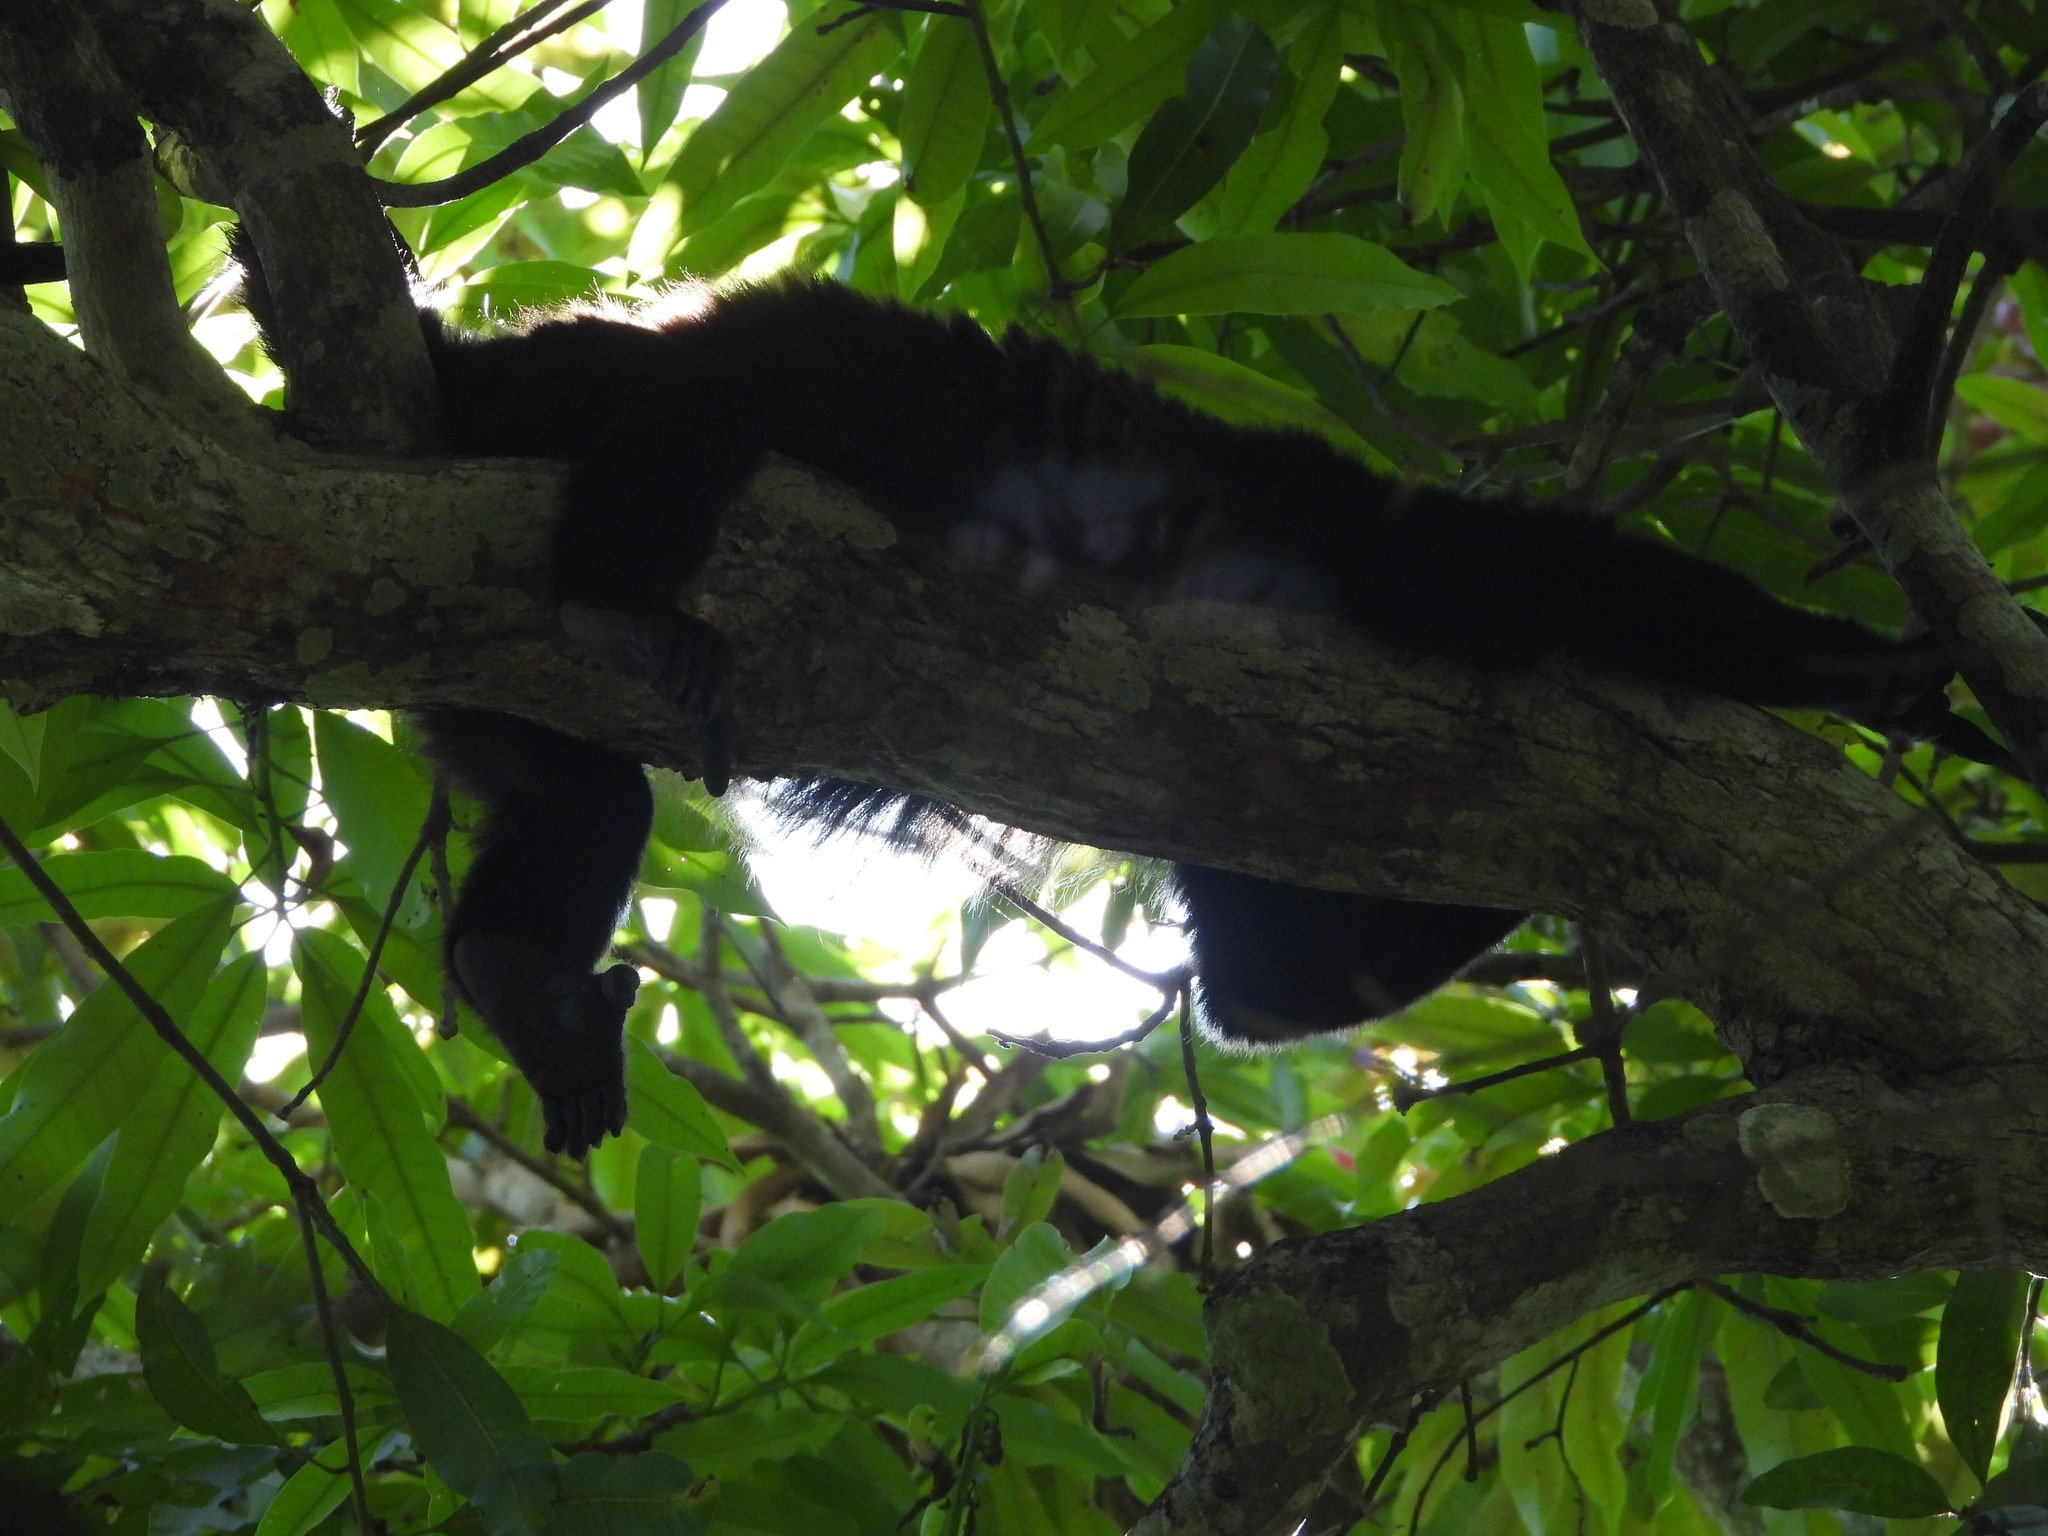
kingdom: Animalia
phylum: Chordata
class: Mammalia
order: Primates
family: Atelidae
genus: Alouatta
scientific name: Alouatta palliata
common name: Mantled howler
